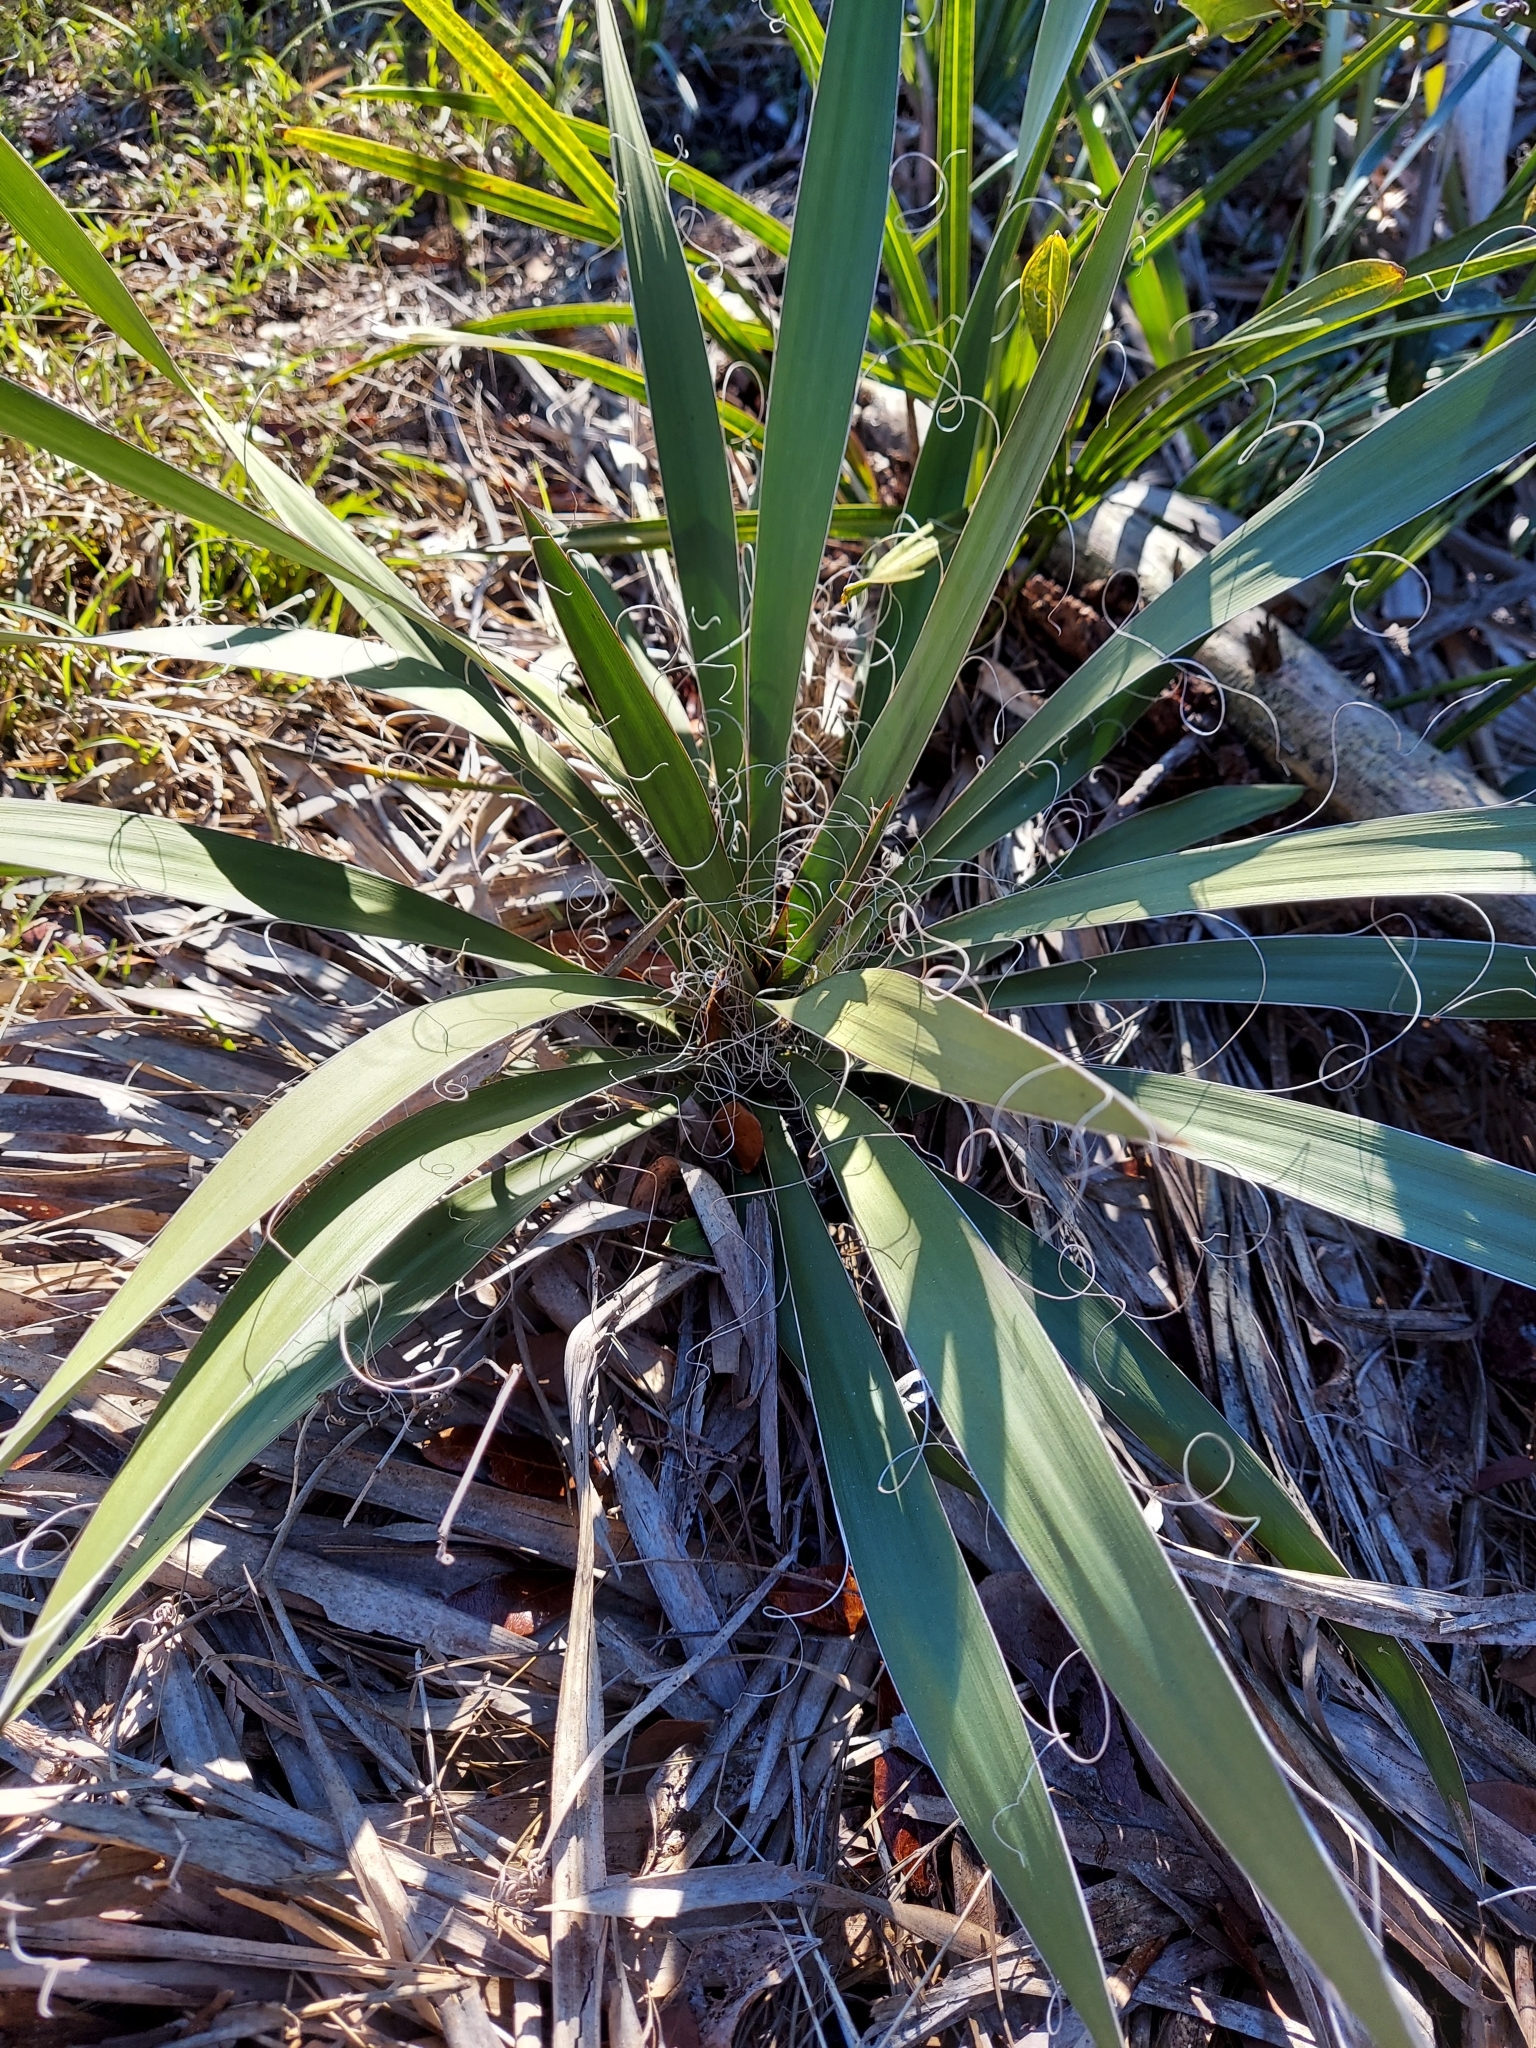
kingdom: Plantae
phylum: Tracheophyta
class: Liliopsida
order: Asparagales
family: Asparagaceae
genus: Yucca
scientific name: Yucca filamentosa
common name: Adam's-needle
